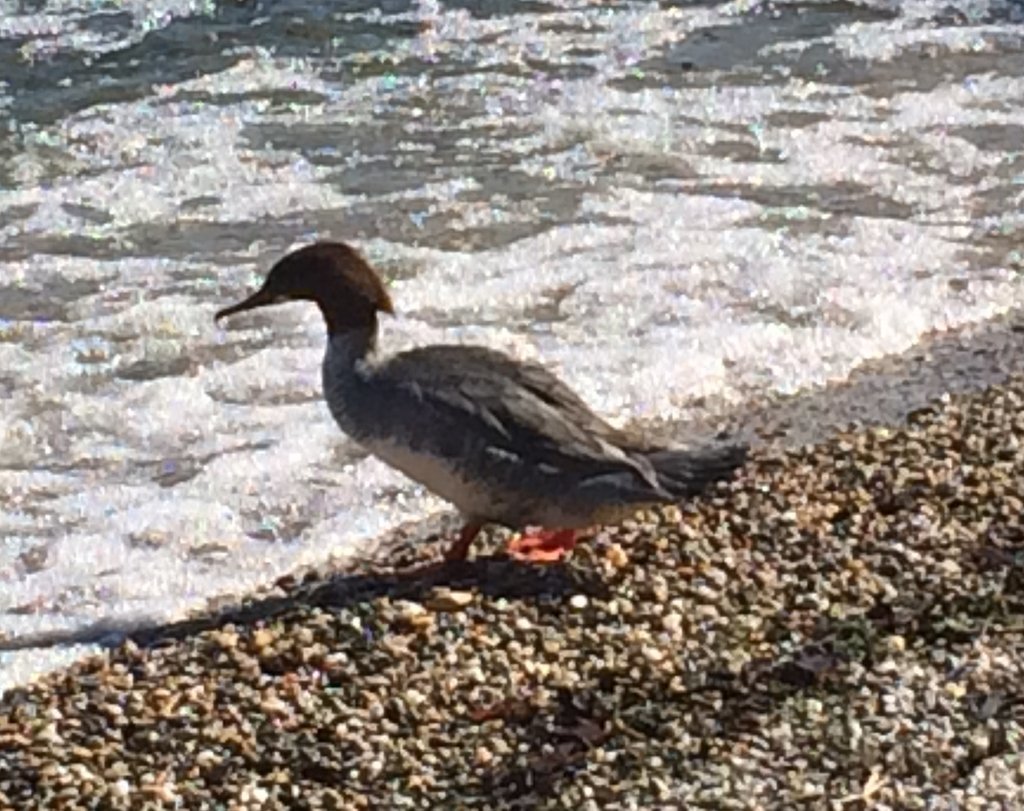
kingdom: Animalia
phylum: Chordata
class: Aves
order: Anseriformes
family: Anatidae
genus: Mergus
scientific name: Mergus merganser
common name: Common merganser
